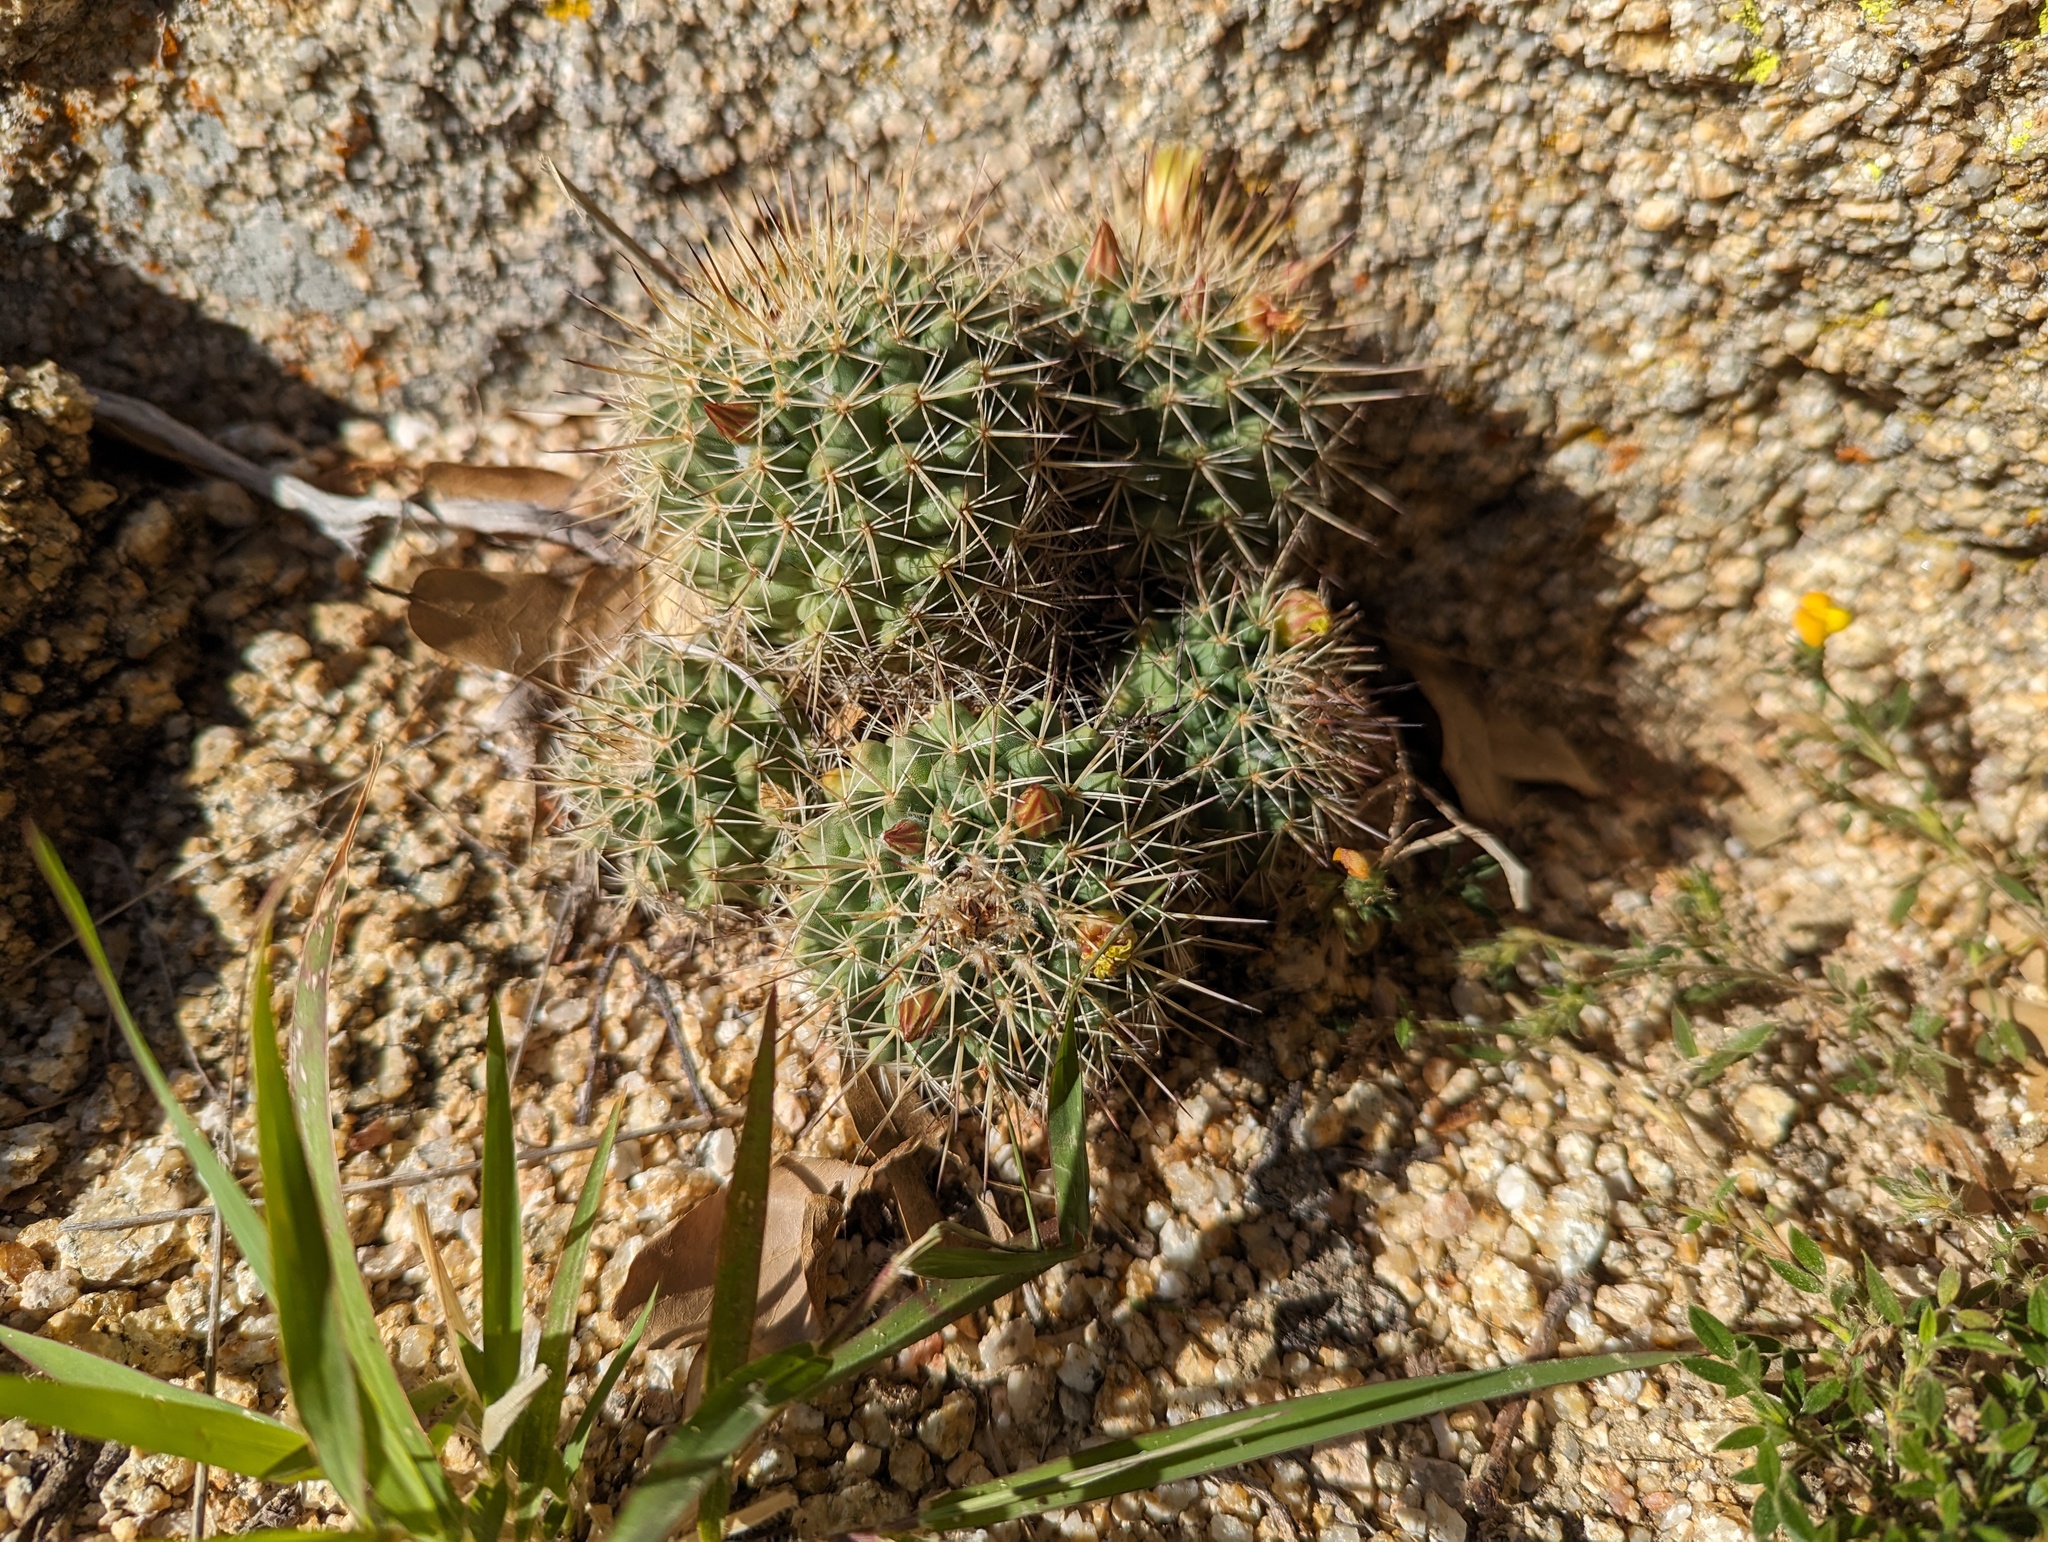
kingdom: Plantae
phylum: Tracheophyta
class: Magnoliopsida
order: Caryophyllales
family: Cactaceae
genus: Mammillaria
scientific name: Mammillaria petrophila
